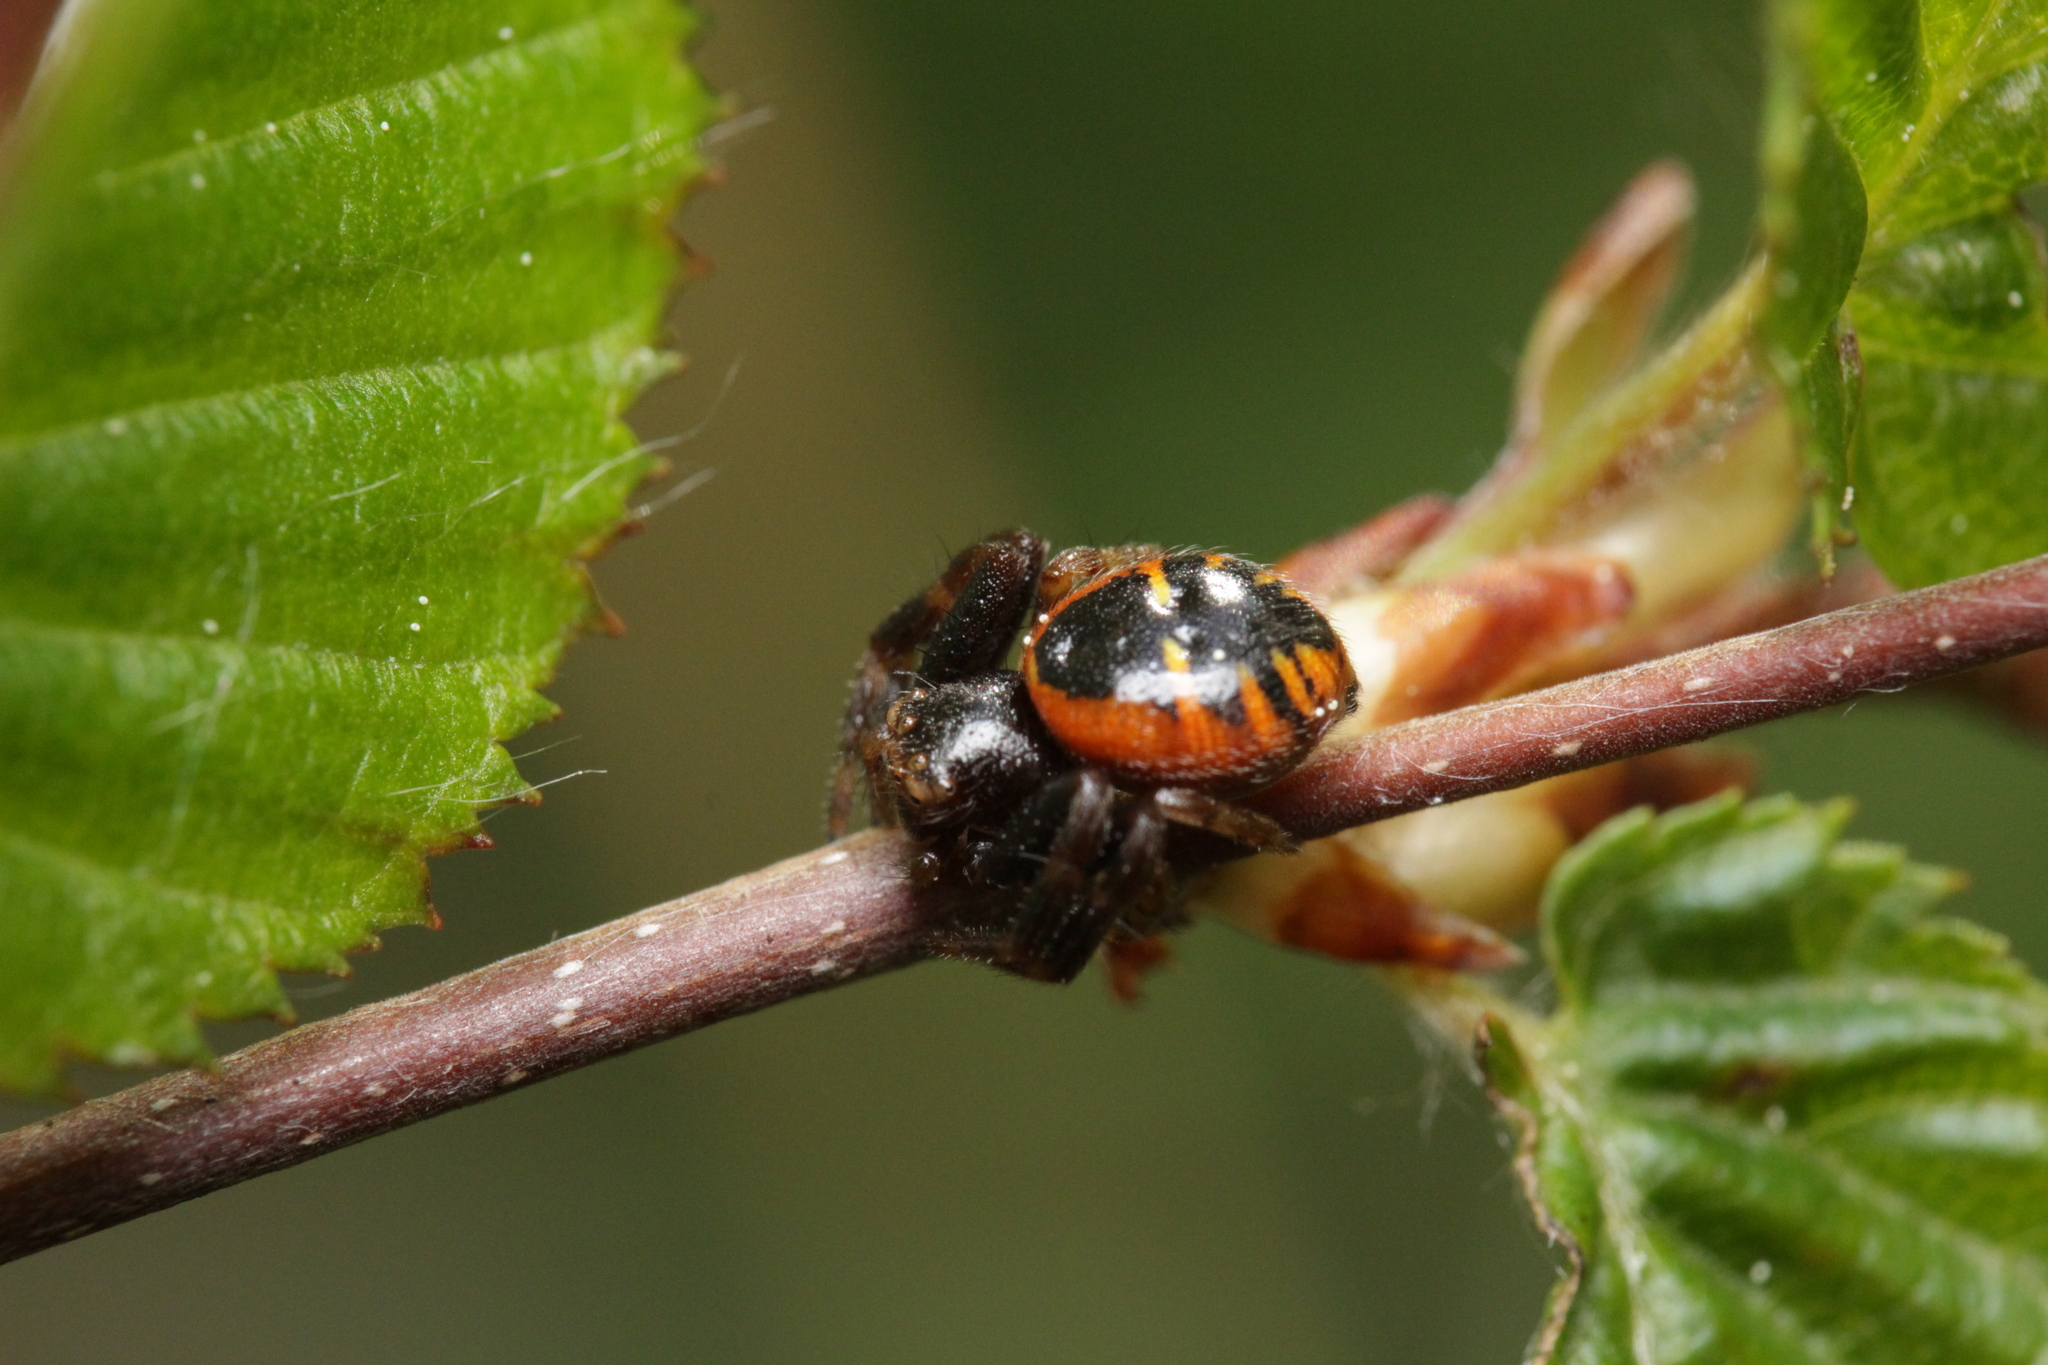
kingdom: Animalia
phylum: Arthropoda
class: Arachnida
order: Araneae
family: Thomisidae
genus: Synema
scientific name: Synema globosum
